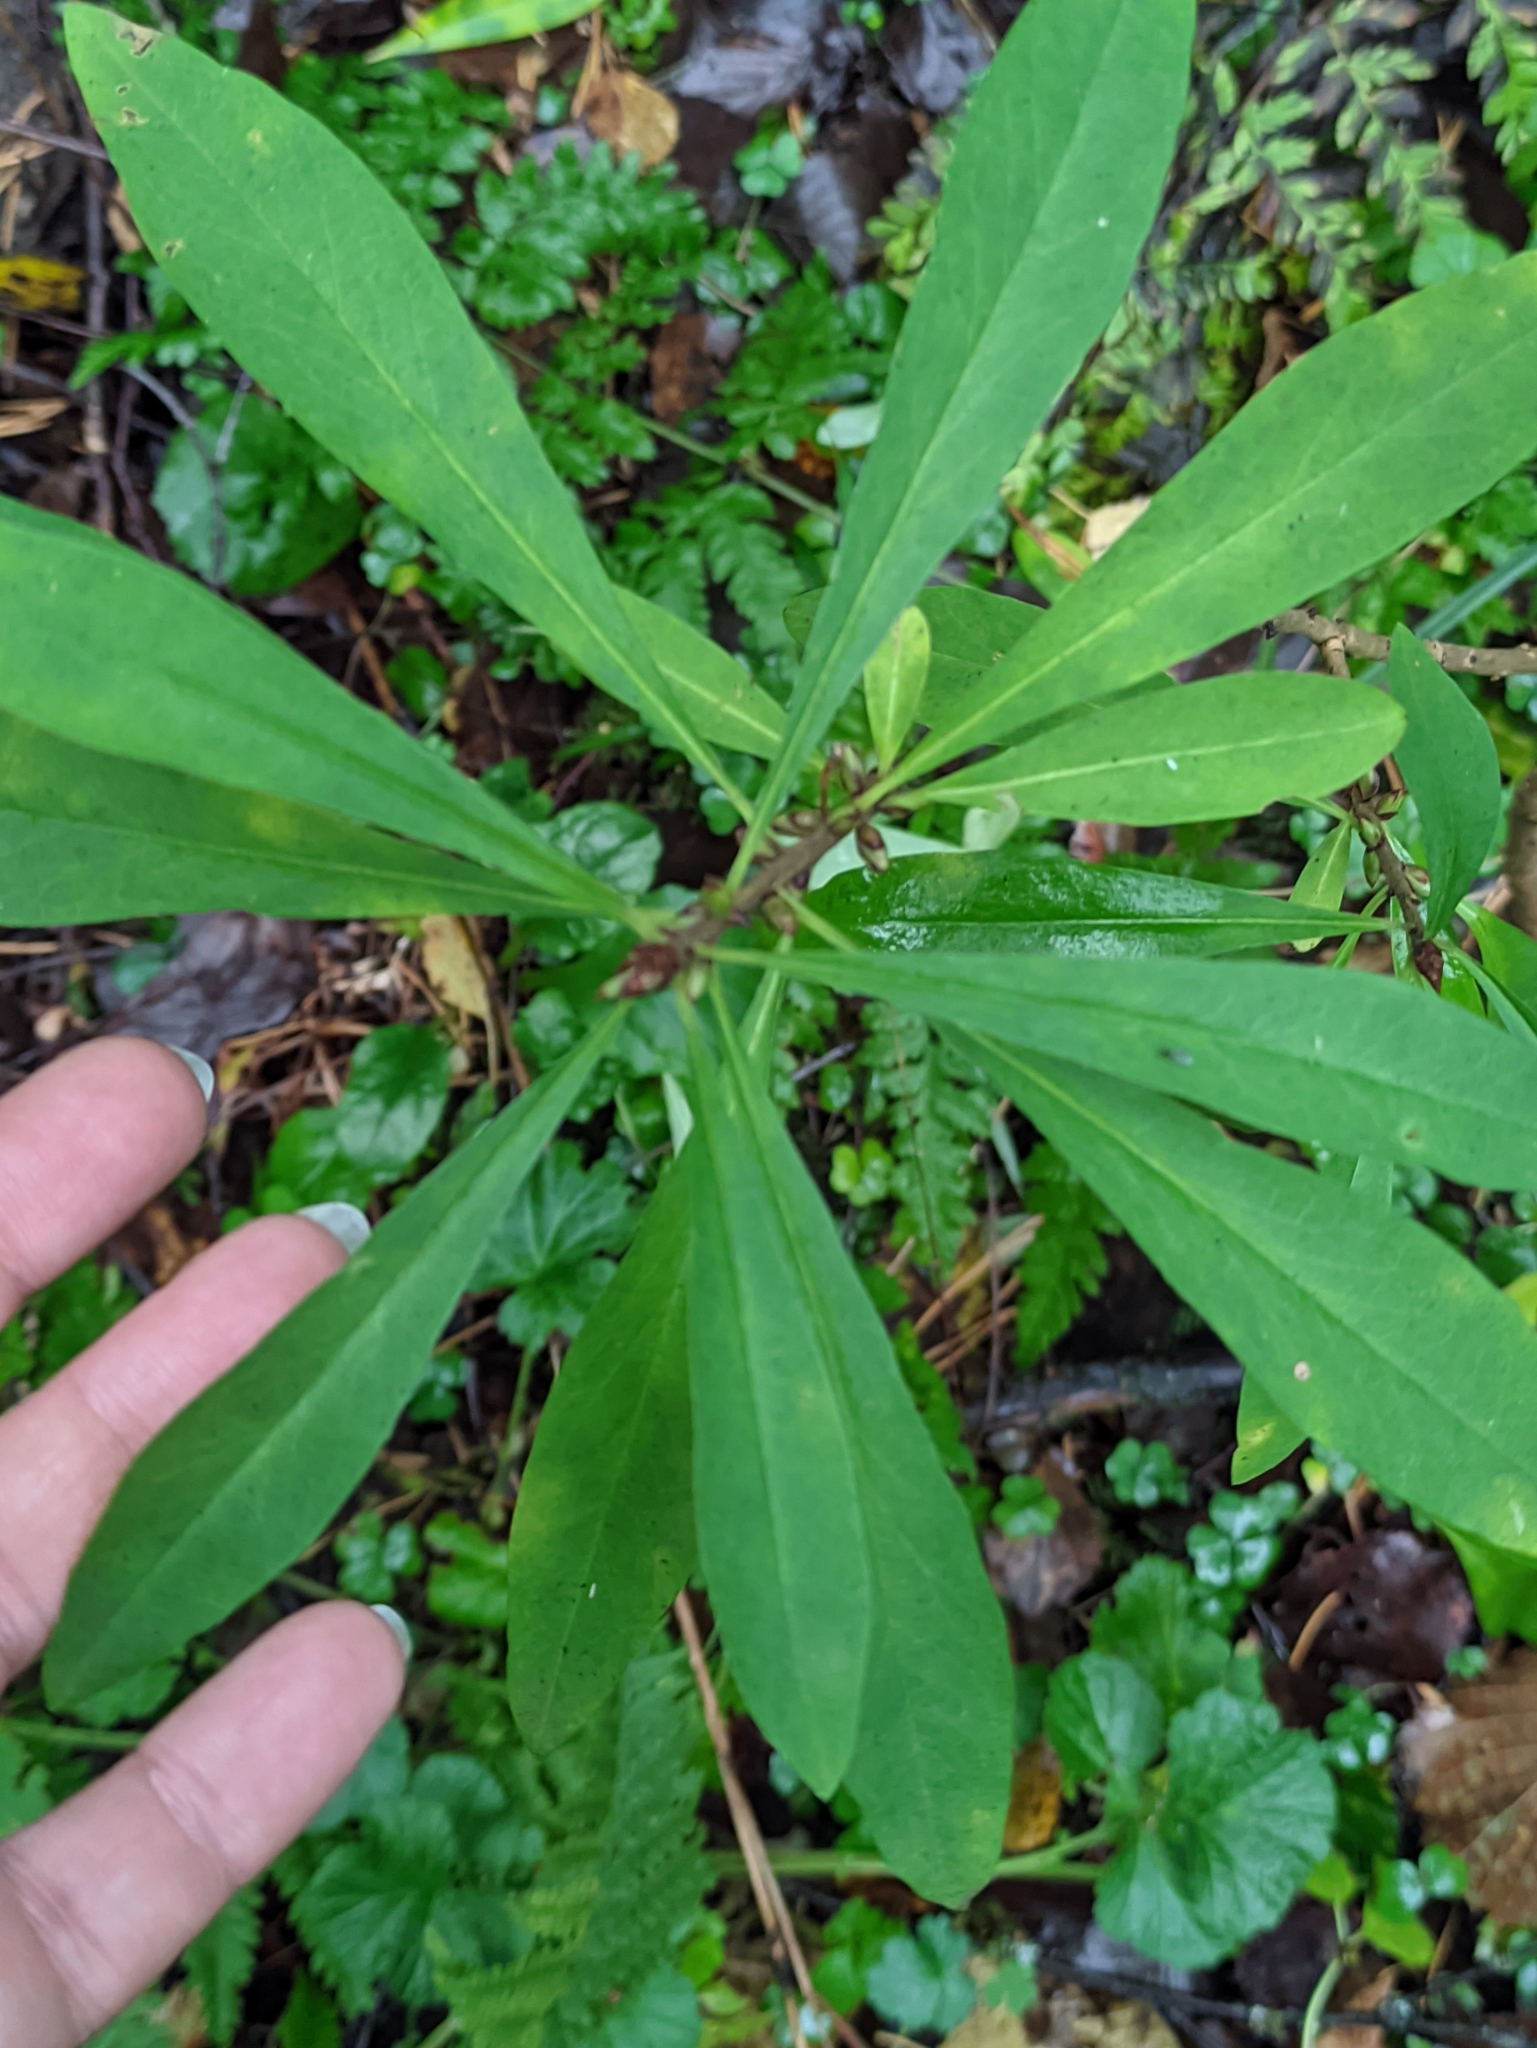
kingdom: Plantae
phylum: Tracheophyta
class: Magnoliopsida
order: Malvales
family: Thymelaeaceae
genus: Daphne
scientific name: Daphne mezereum
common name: Mezereon
